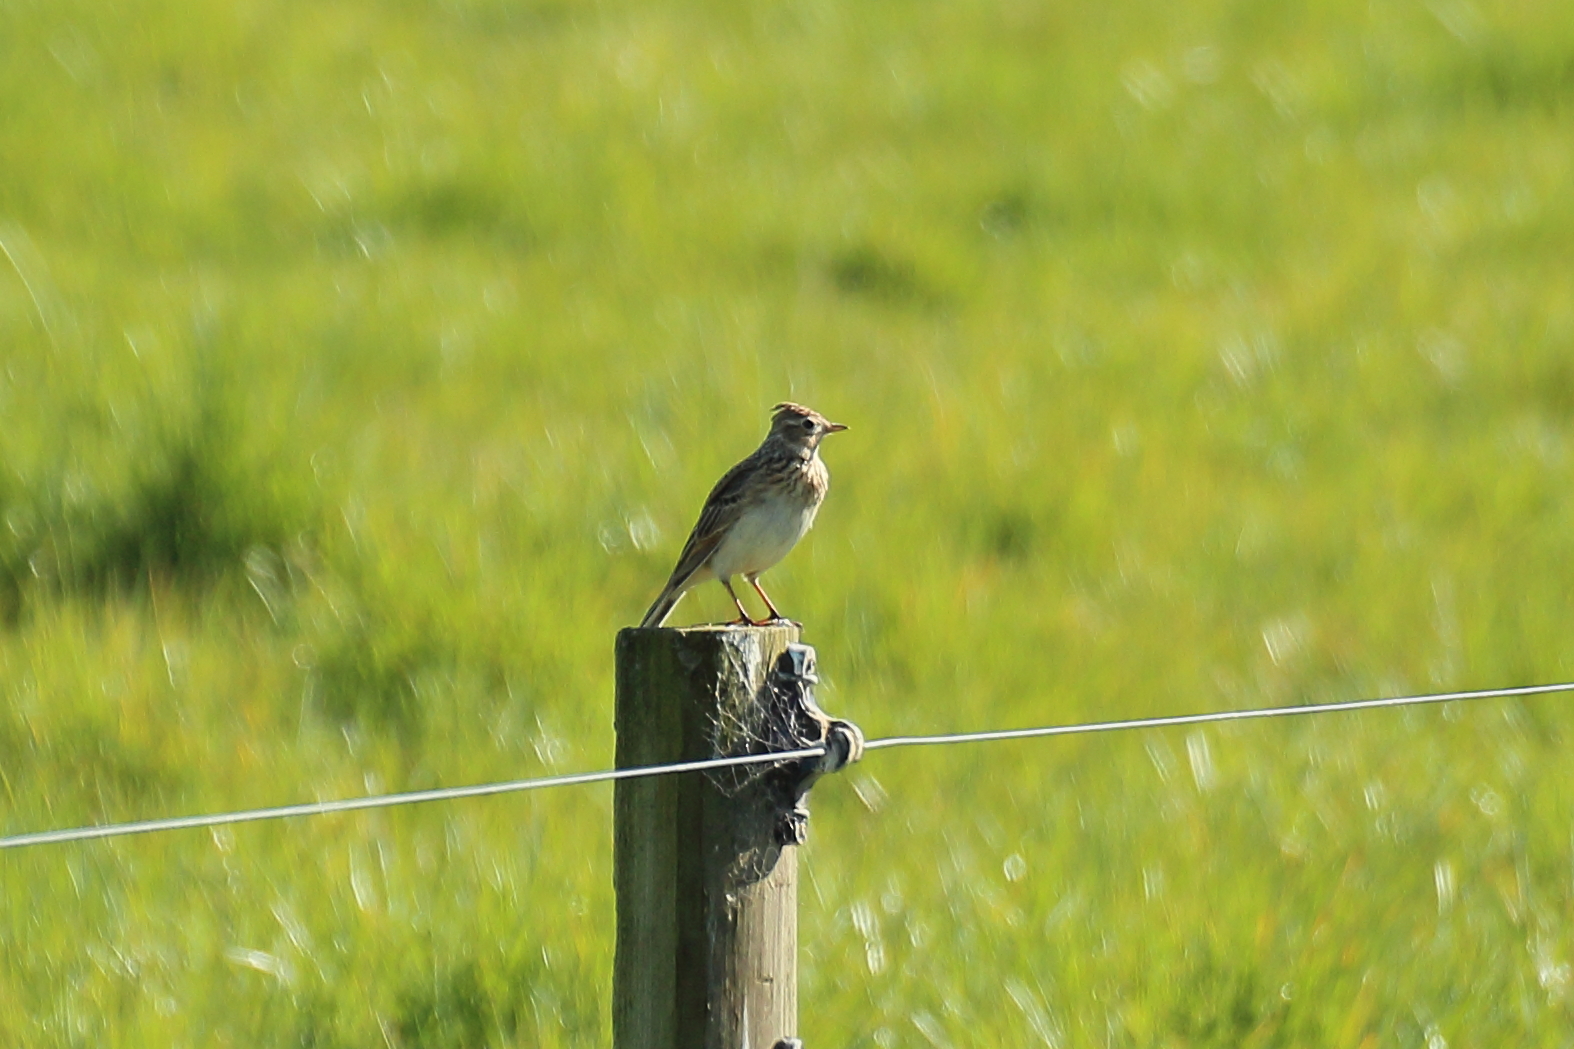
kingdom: Animalia
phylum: Chordata
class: Aves
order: Passeriformes
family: Alaudidae
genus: Alauda
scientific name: Alauda arvensis
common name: Eurasian skylark
